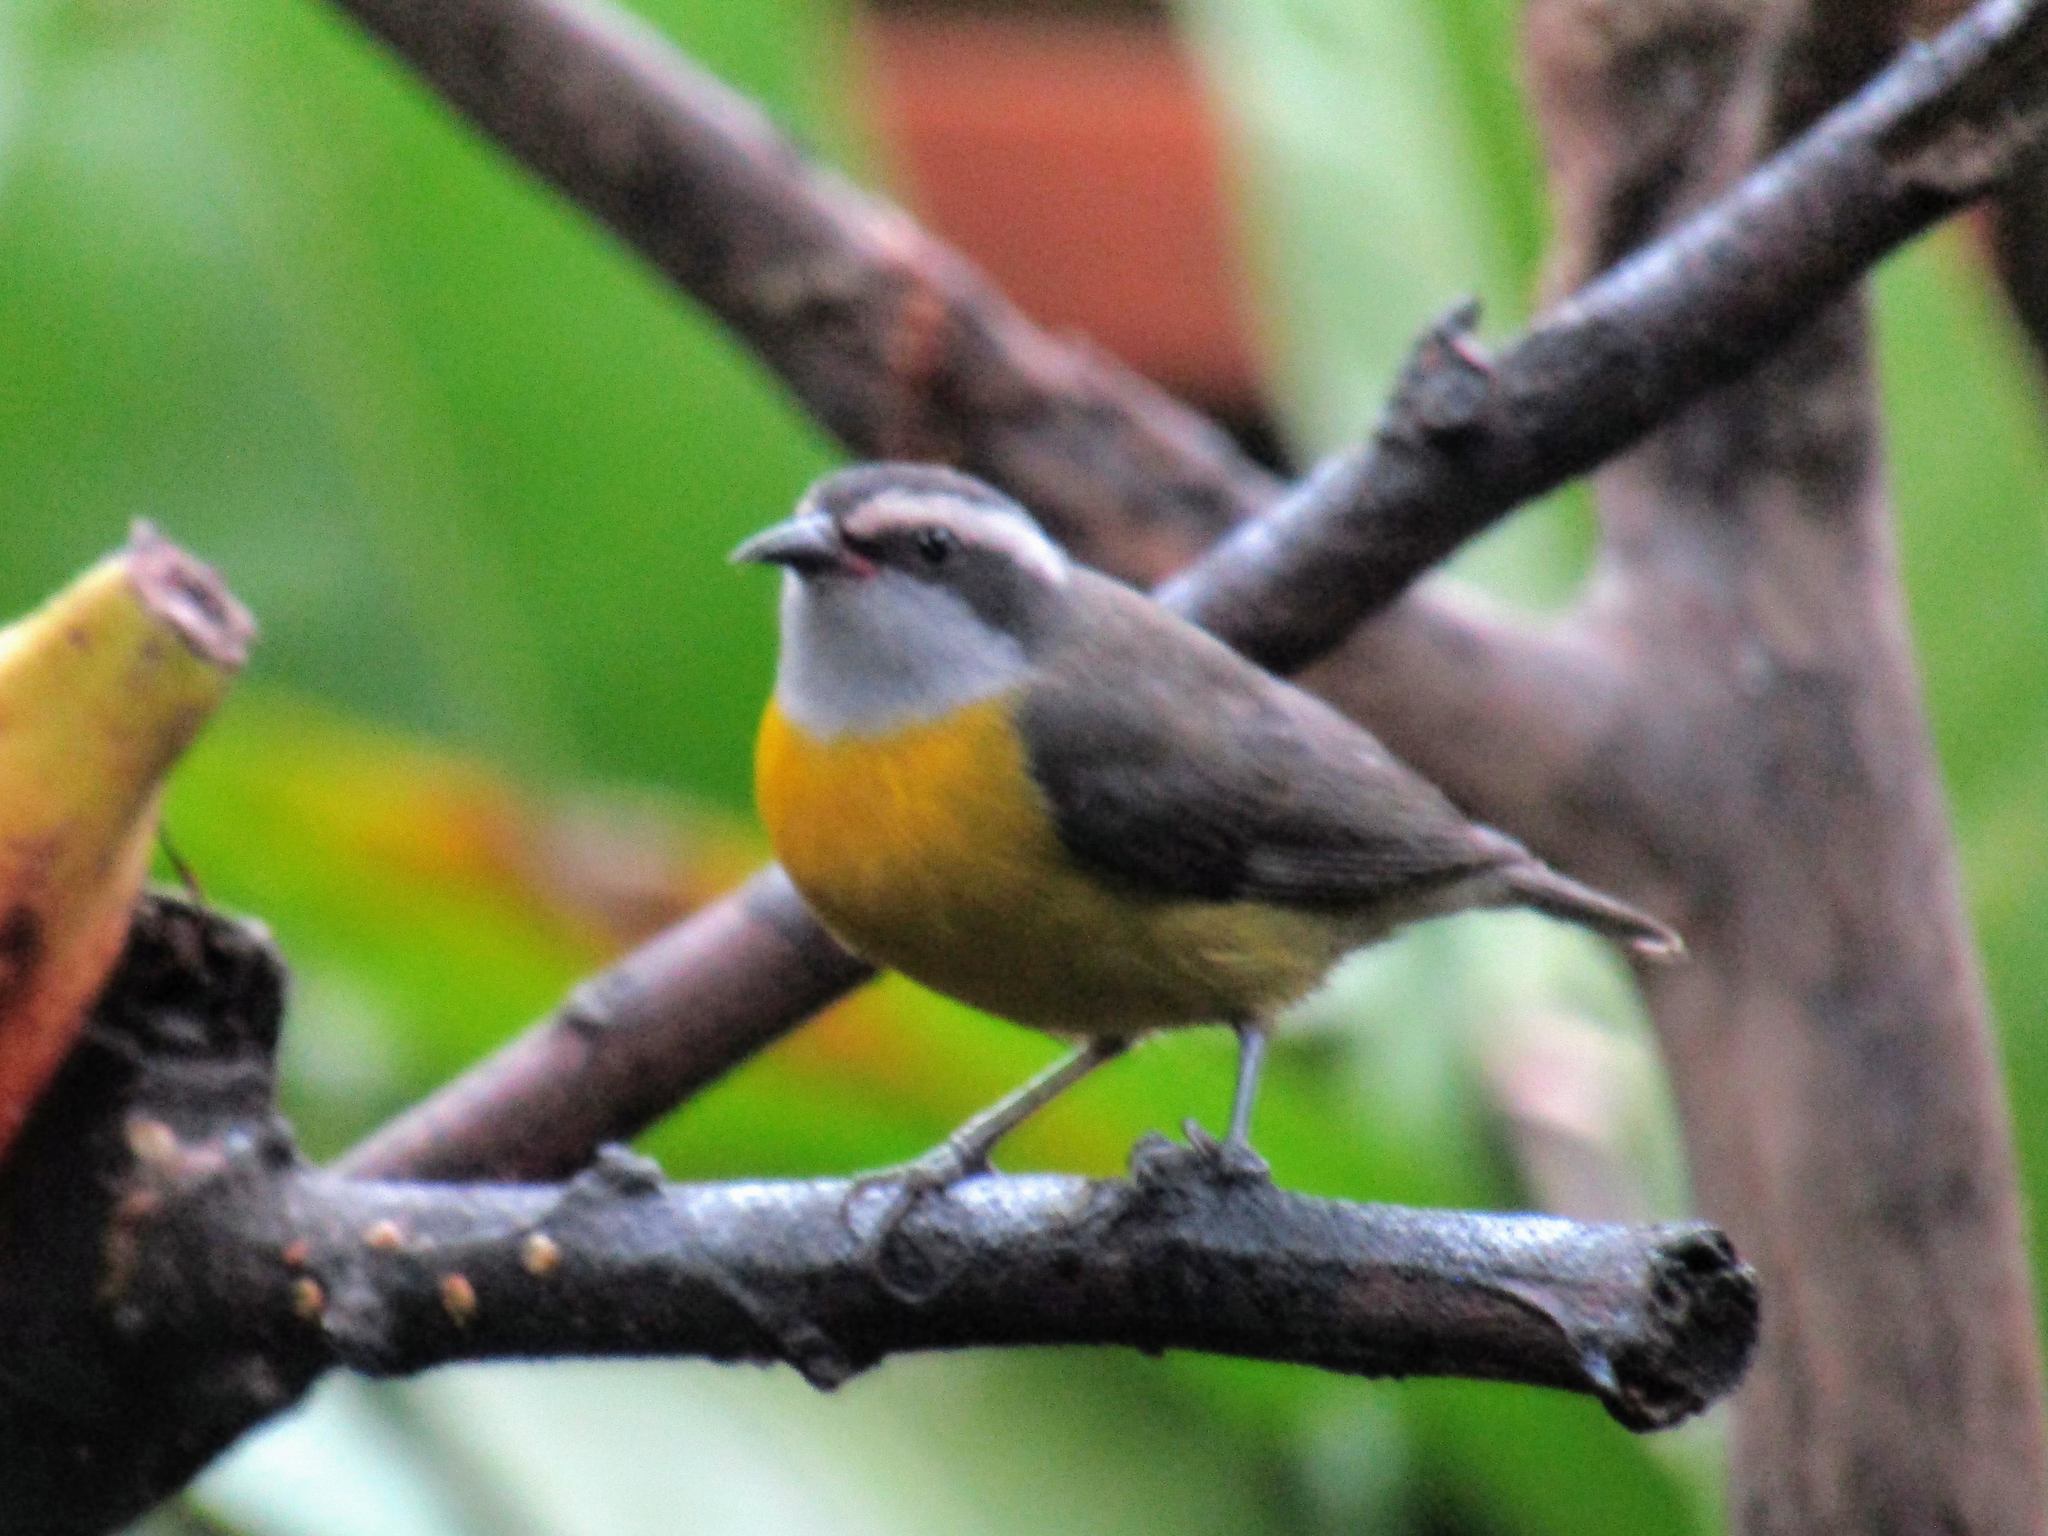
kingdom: Animalia
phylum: Chordata
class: Aves
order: Passeriformes
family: Thraupidae
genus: Coereba
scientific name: Coereba flaveola
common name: Bananaquit
